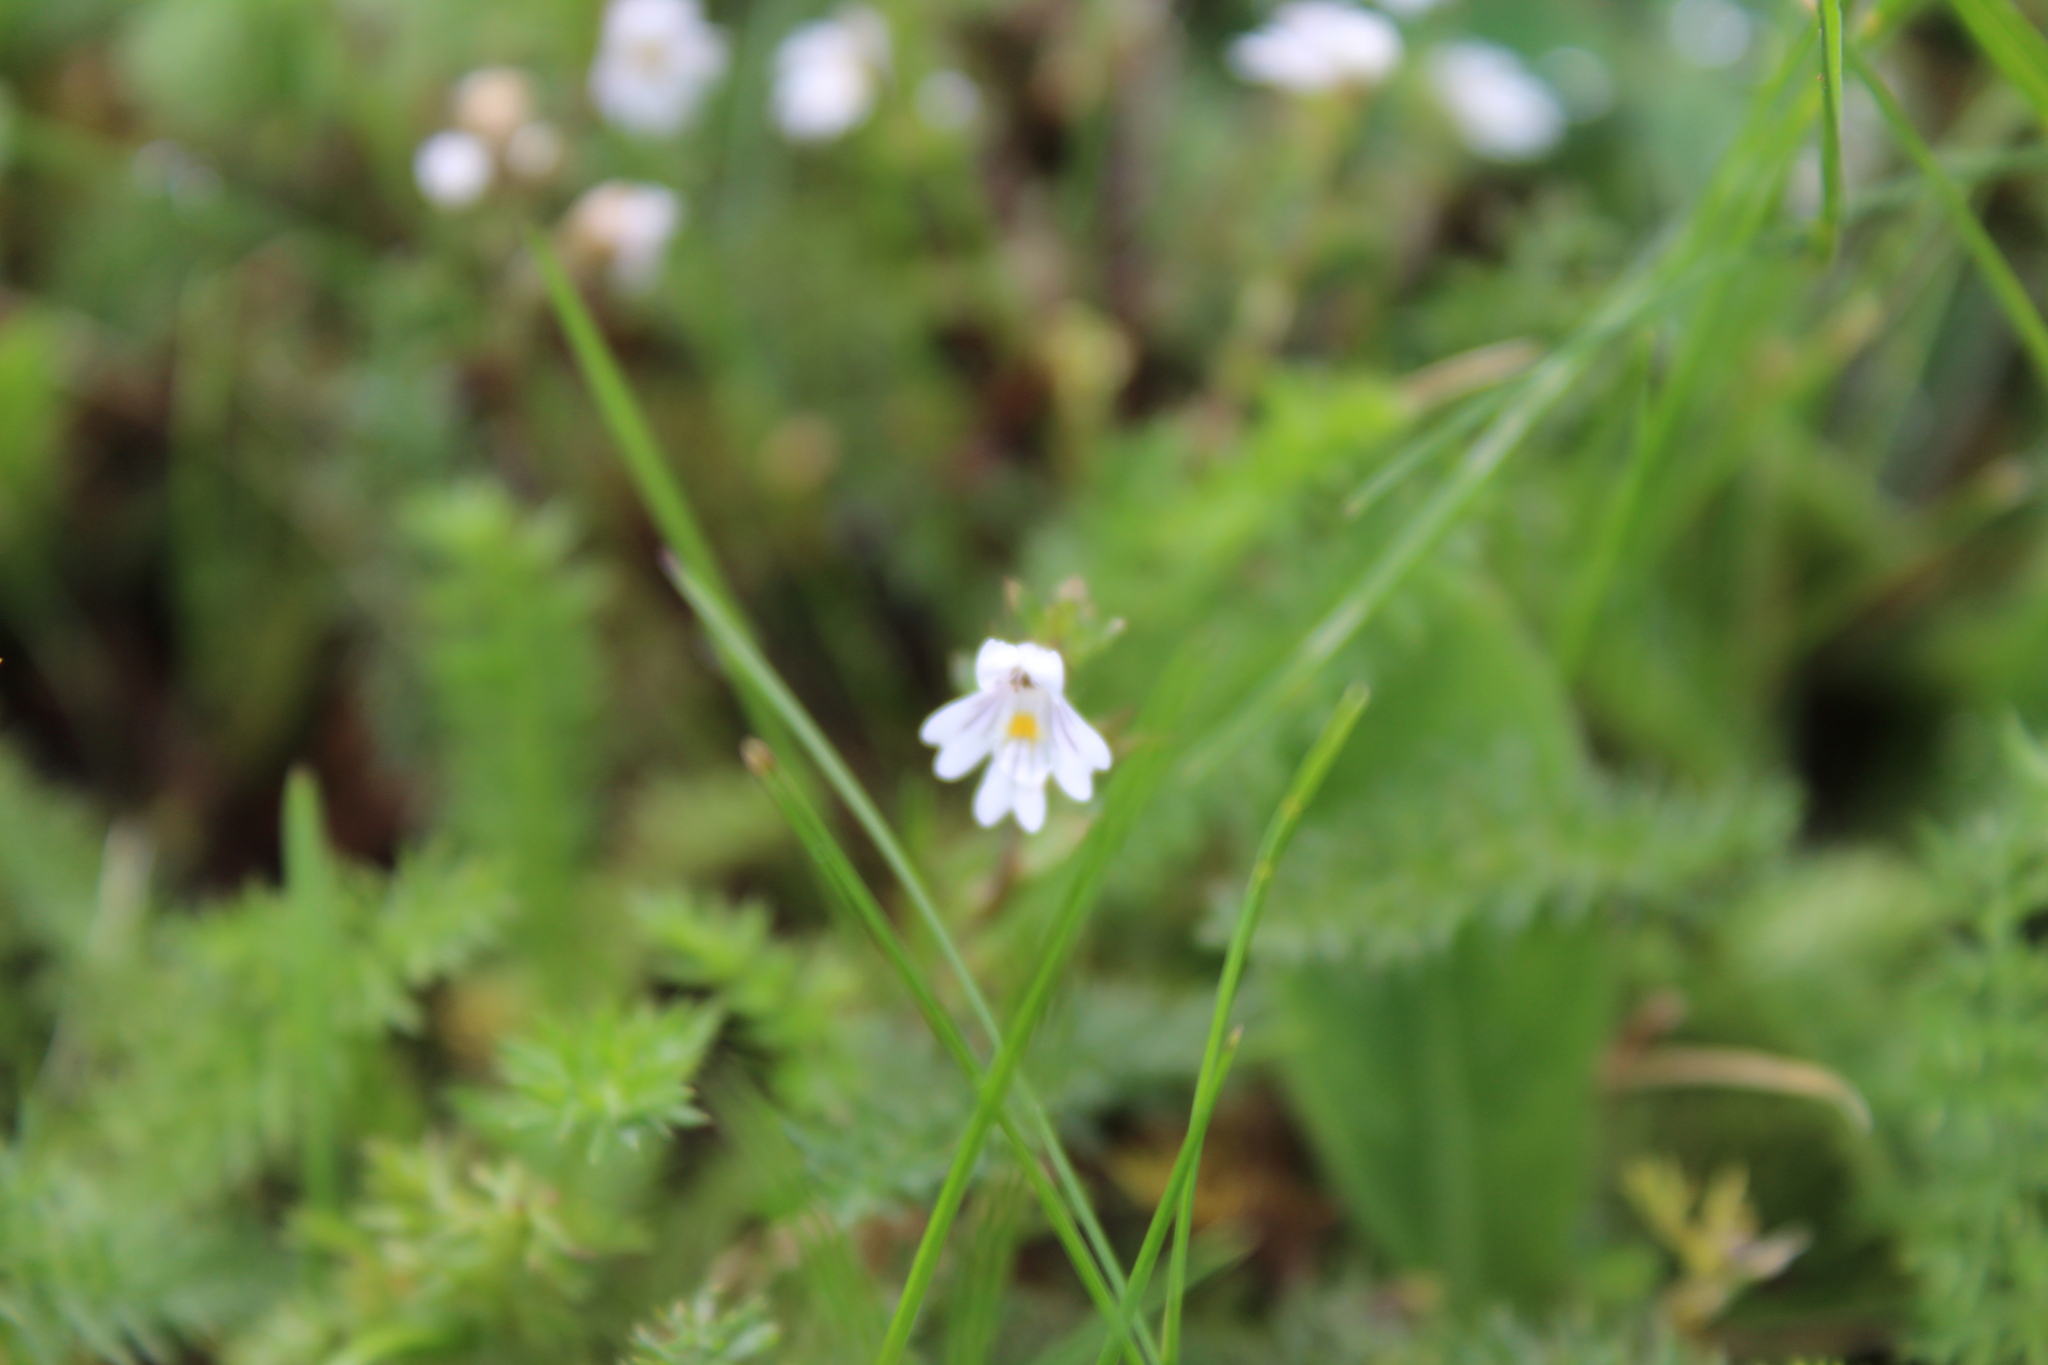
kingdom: Plantae
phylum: Tracheophyta
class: Magnoliopsida
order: Lamiales
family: Orobanchaceae
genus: Euphrasia
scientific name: Euphrasia nemorosa
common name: Common eyebright
